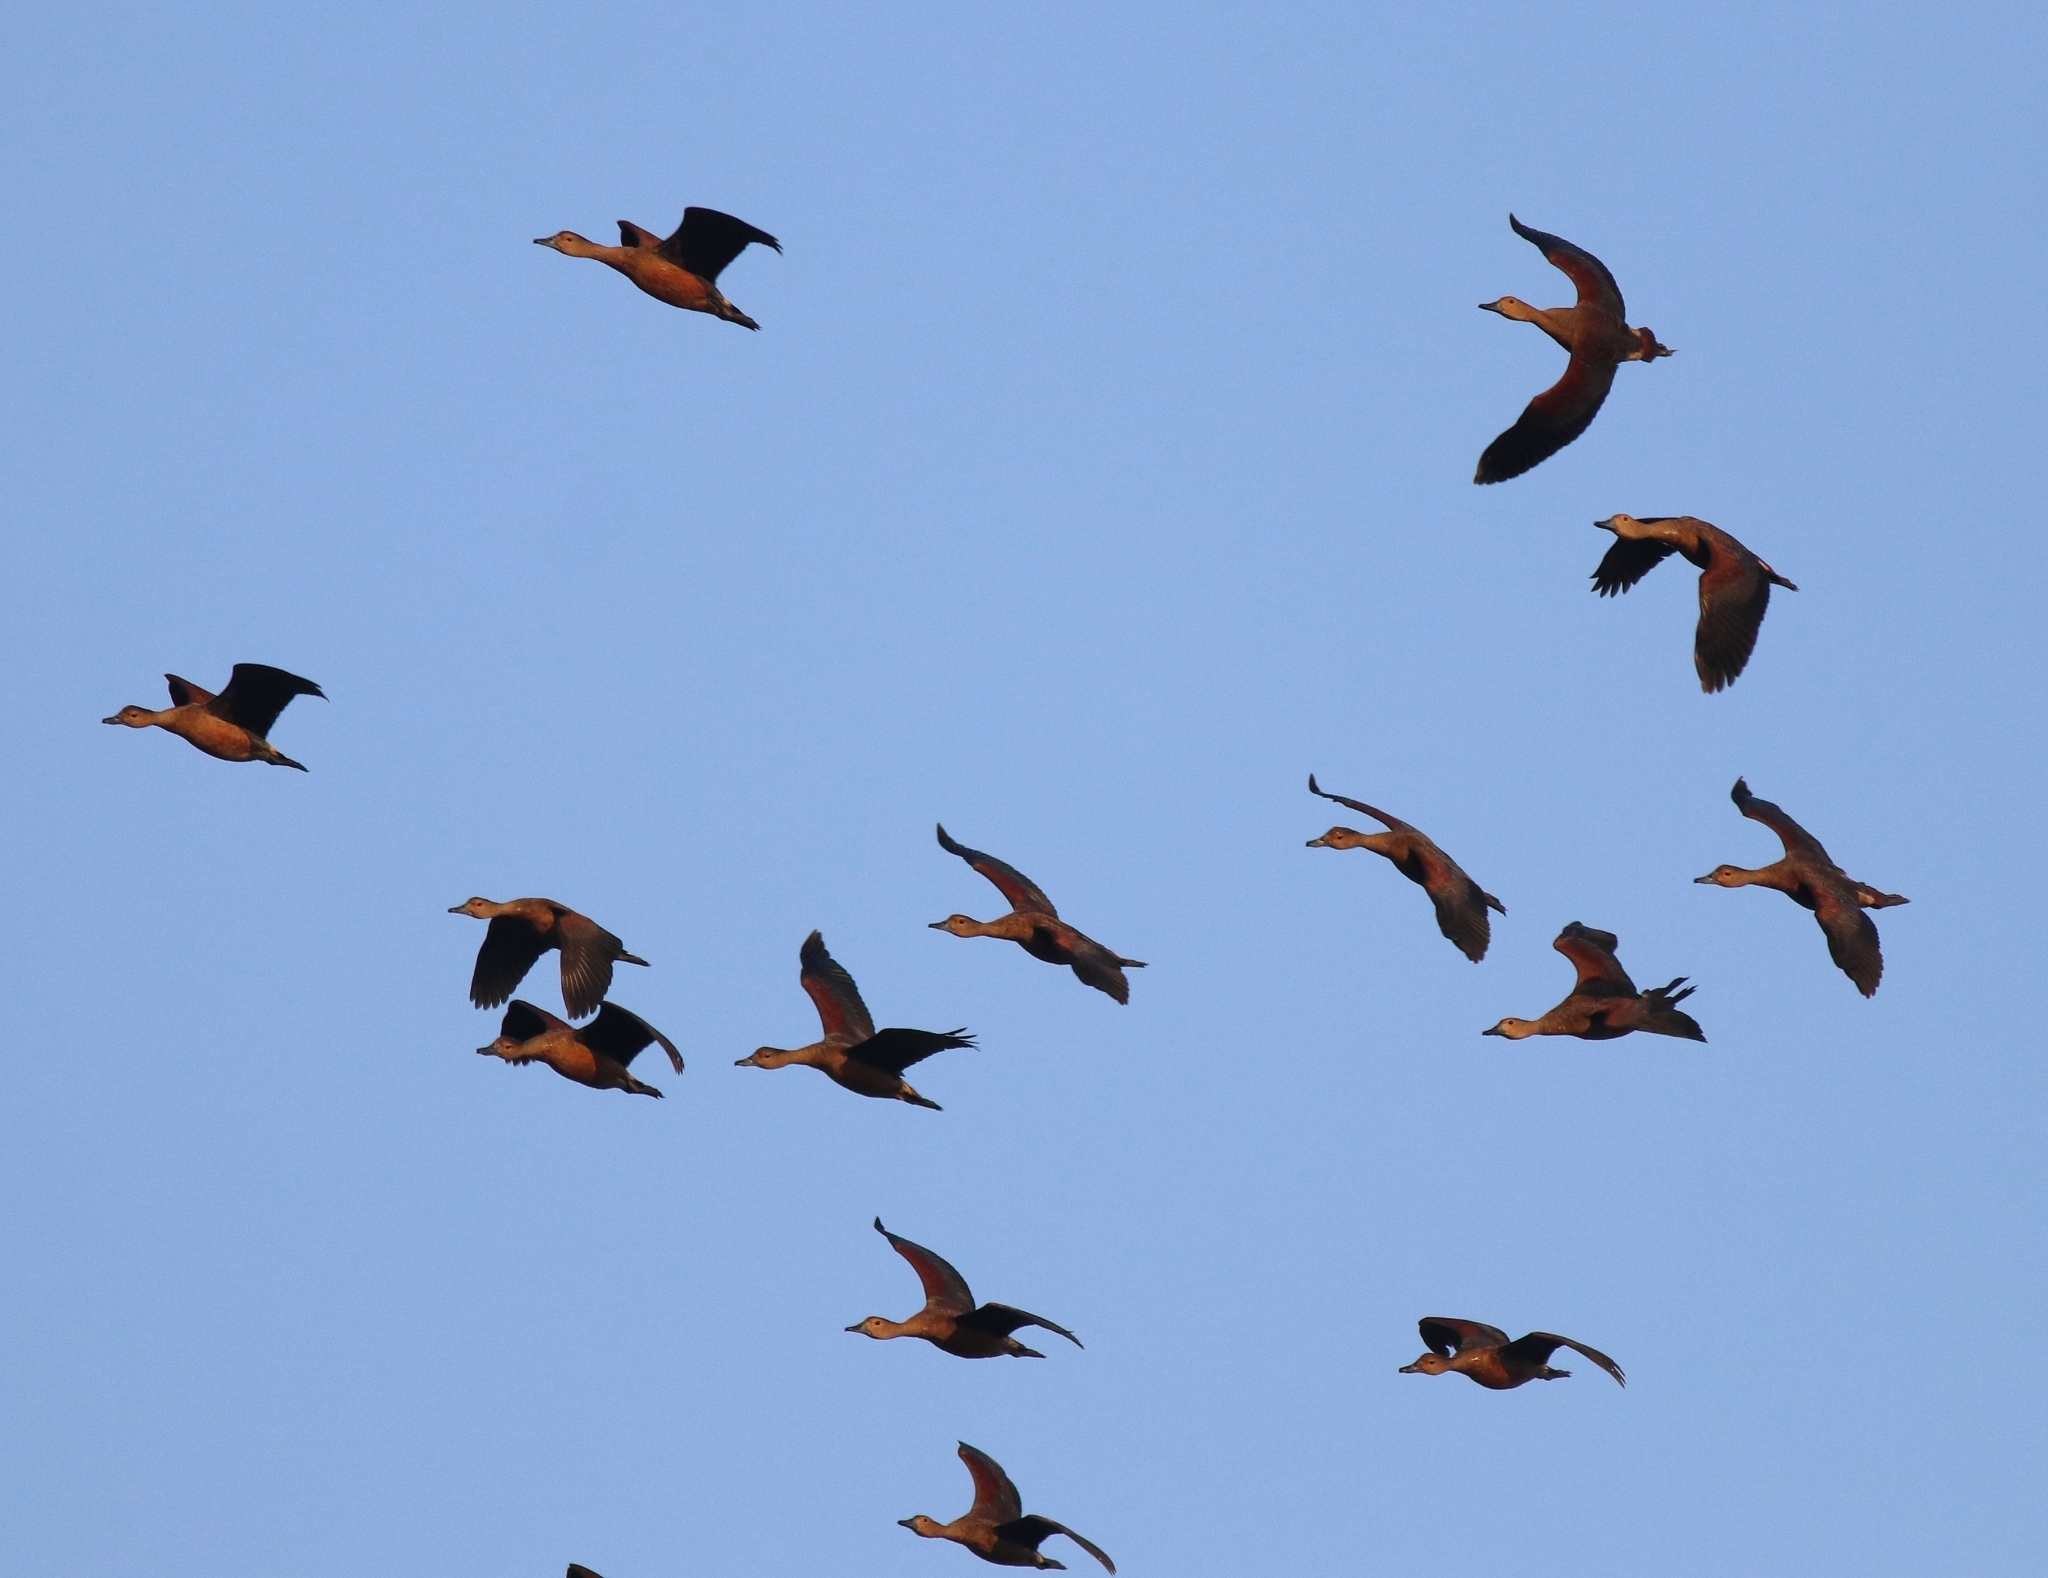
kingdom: Animalia
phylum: Chordata
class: Aves
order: Anseriformes
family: Anatidae
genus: Dendrocygna
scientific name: Dendrocygna javanica
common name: Lesser whistling-duck
